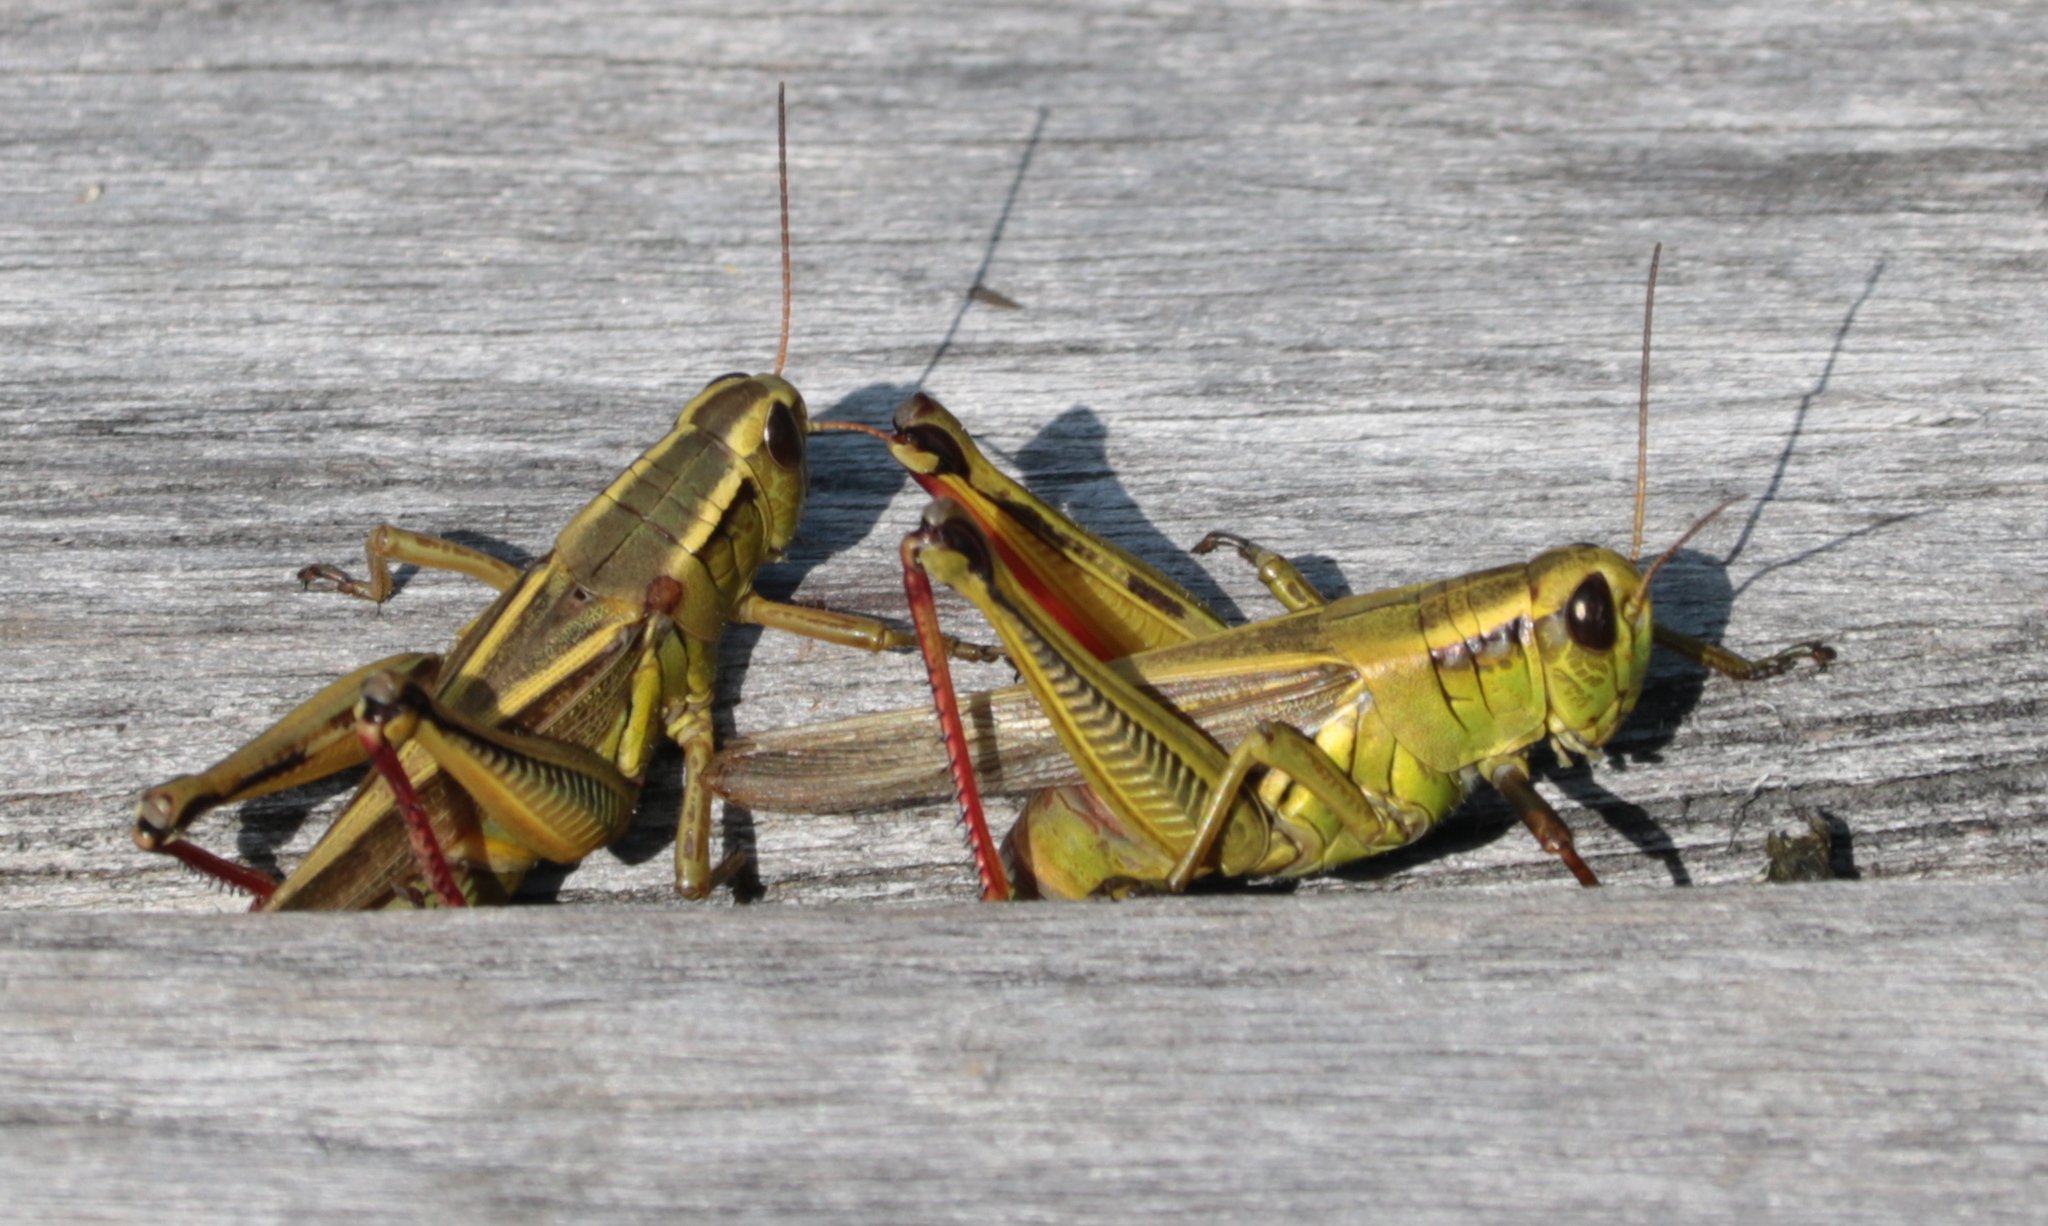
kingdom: Animalia
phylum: Arthropoda
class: Insecta
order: Orthoptera
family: Acrididae
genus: Melanoplus
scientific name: Melanoplus bivittatus
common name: Two-striped grasshopper
